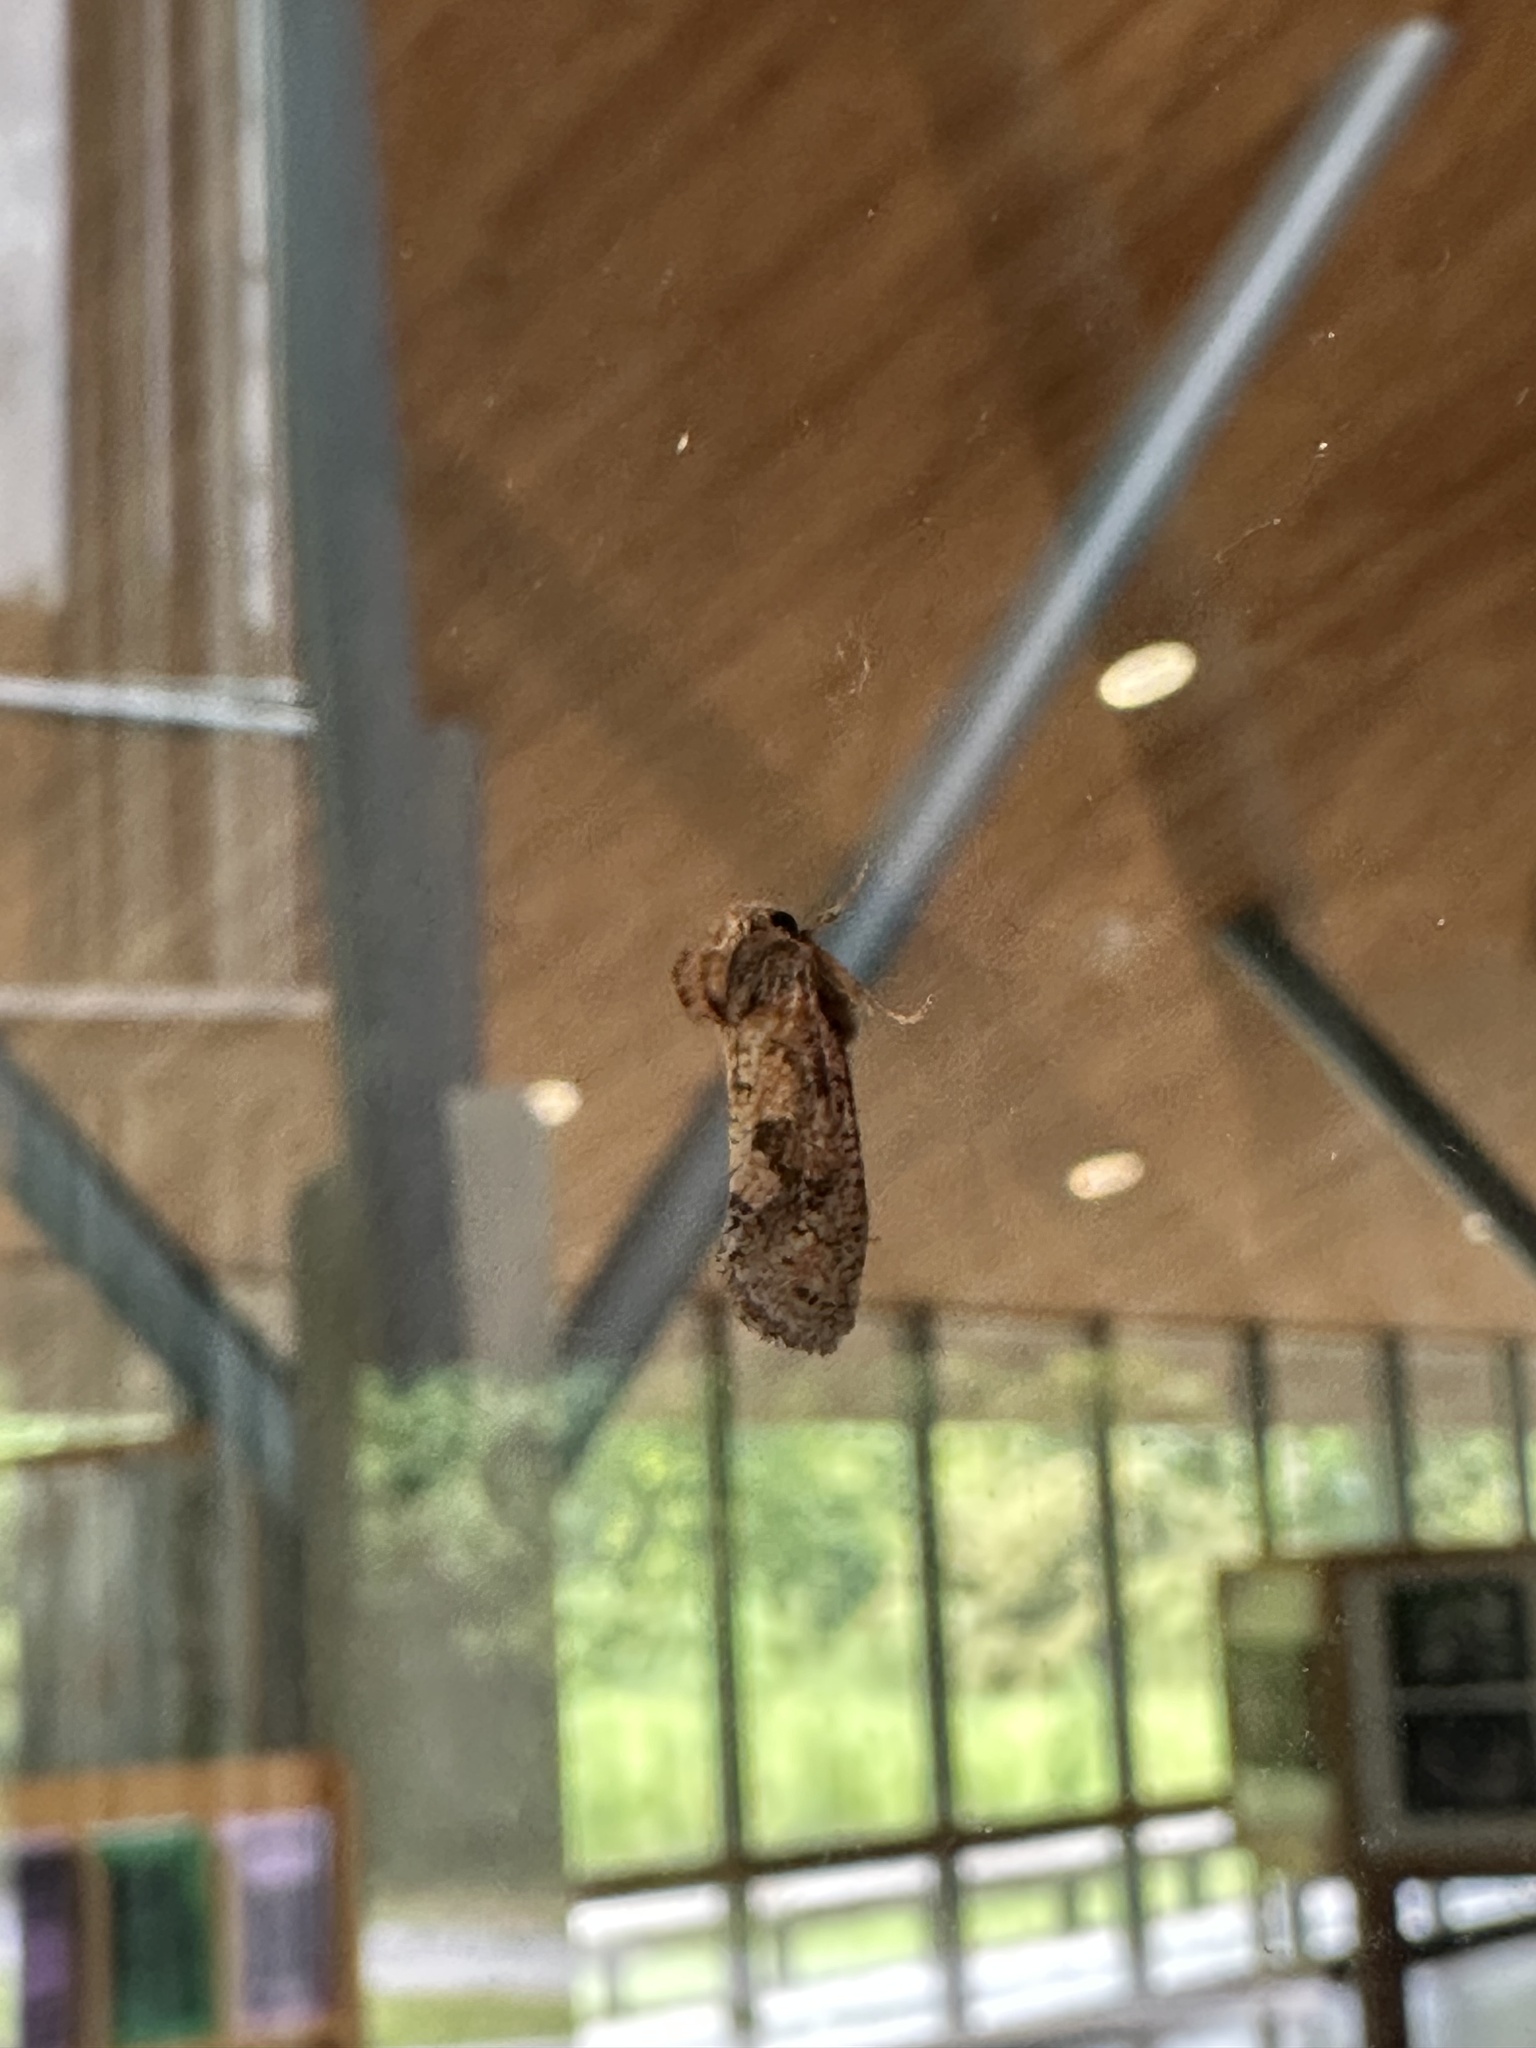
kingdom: Animalia
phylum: Arthropoda
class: Insecta
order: Lepidoptera
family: Tineidae
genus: Acrolophus
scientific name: Acrolophus plumifrontella
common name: Eastern grass tubeworm moth
